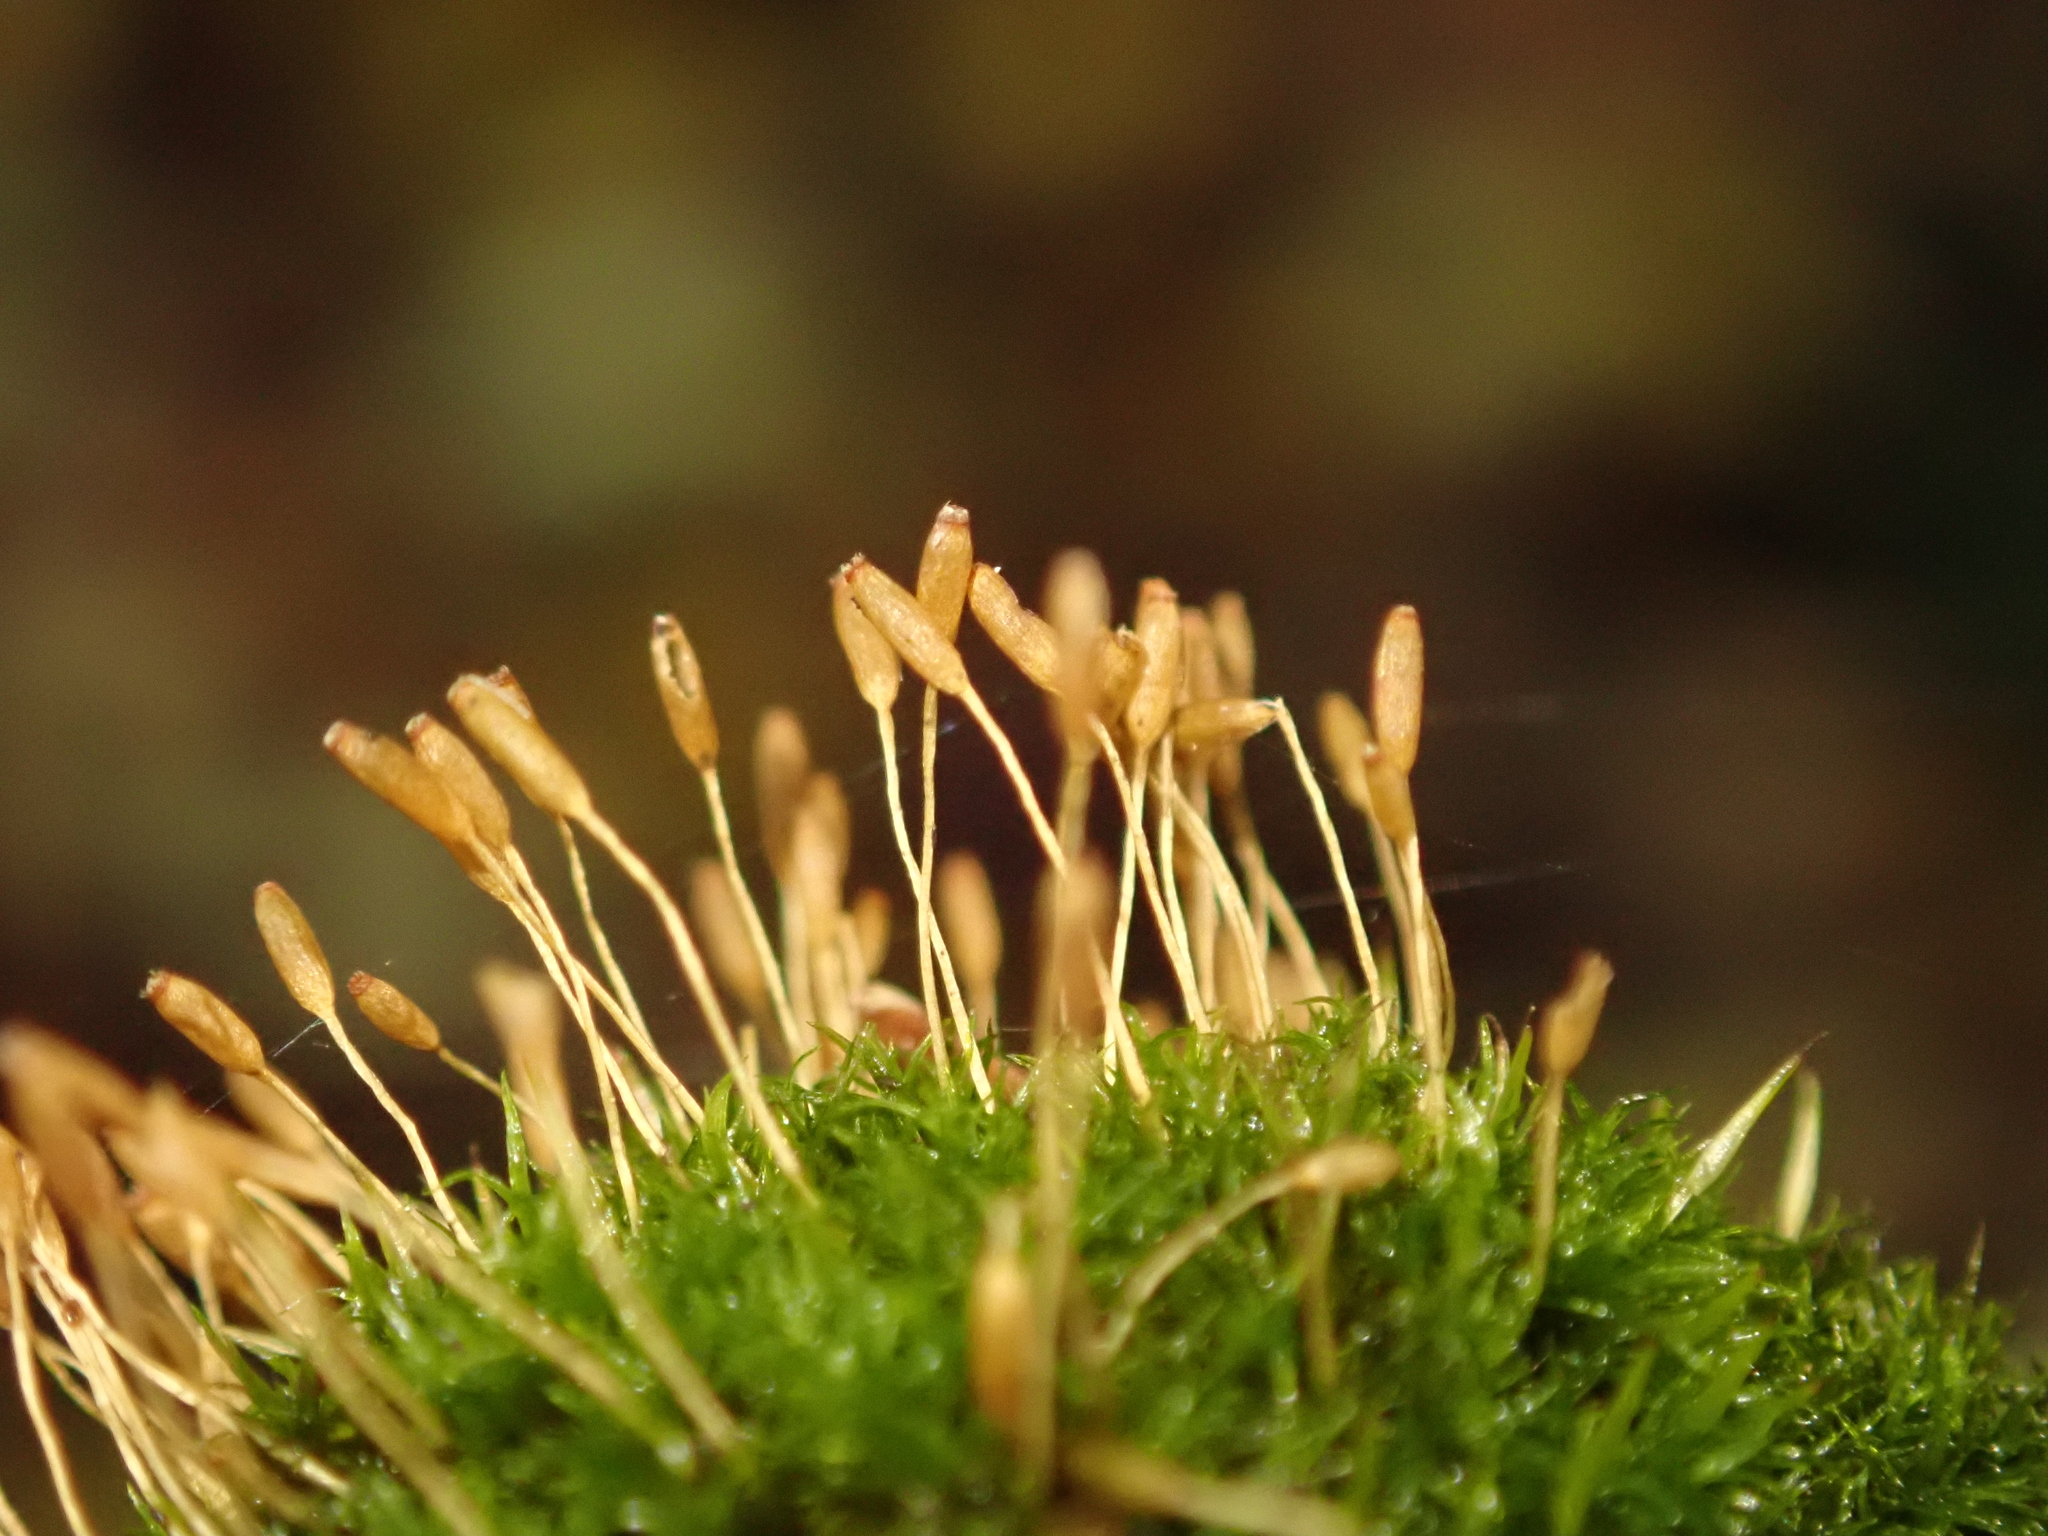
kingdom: Plantae
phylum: Bryophyta
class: Bryopsida
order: Dicranales
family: Rhabdoweisiaceae
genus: Dicranoweisia
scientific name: Dicranoweisia cirrata
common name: Common pincushion
